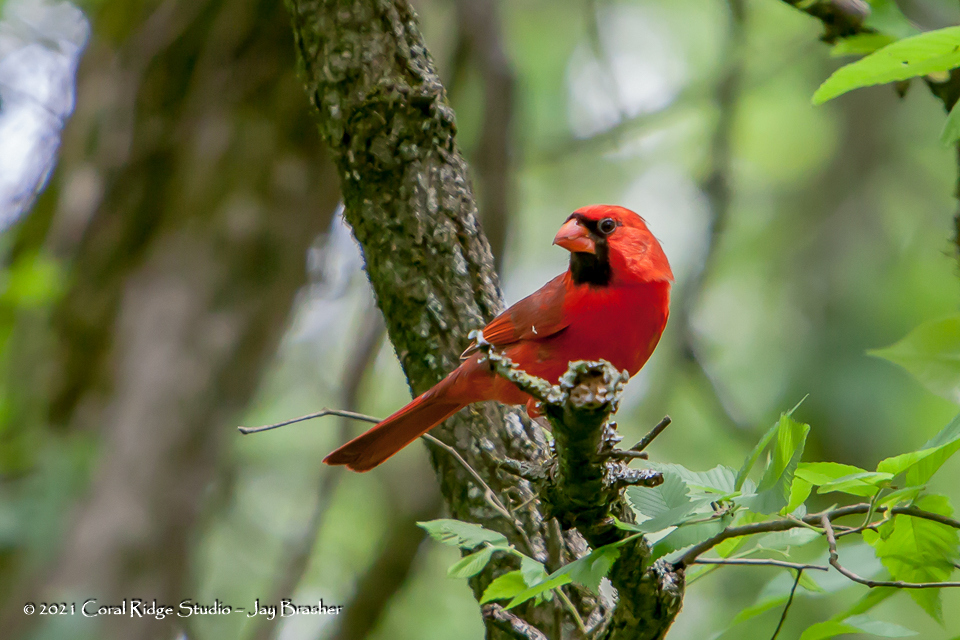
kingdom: Animalia
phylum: Chordata
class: Aves
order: Passeriformes
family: Cardinalidae
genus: Cardinalis
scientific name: Cardinalis cardinalis
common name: Northern cardinal
